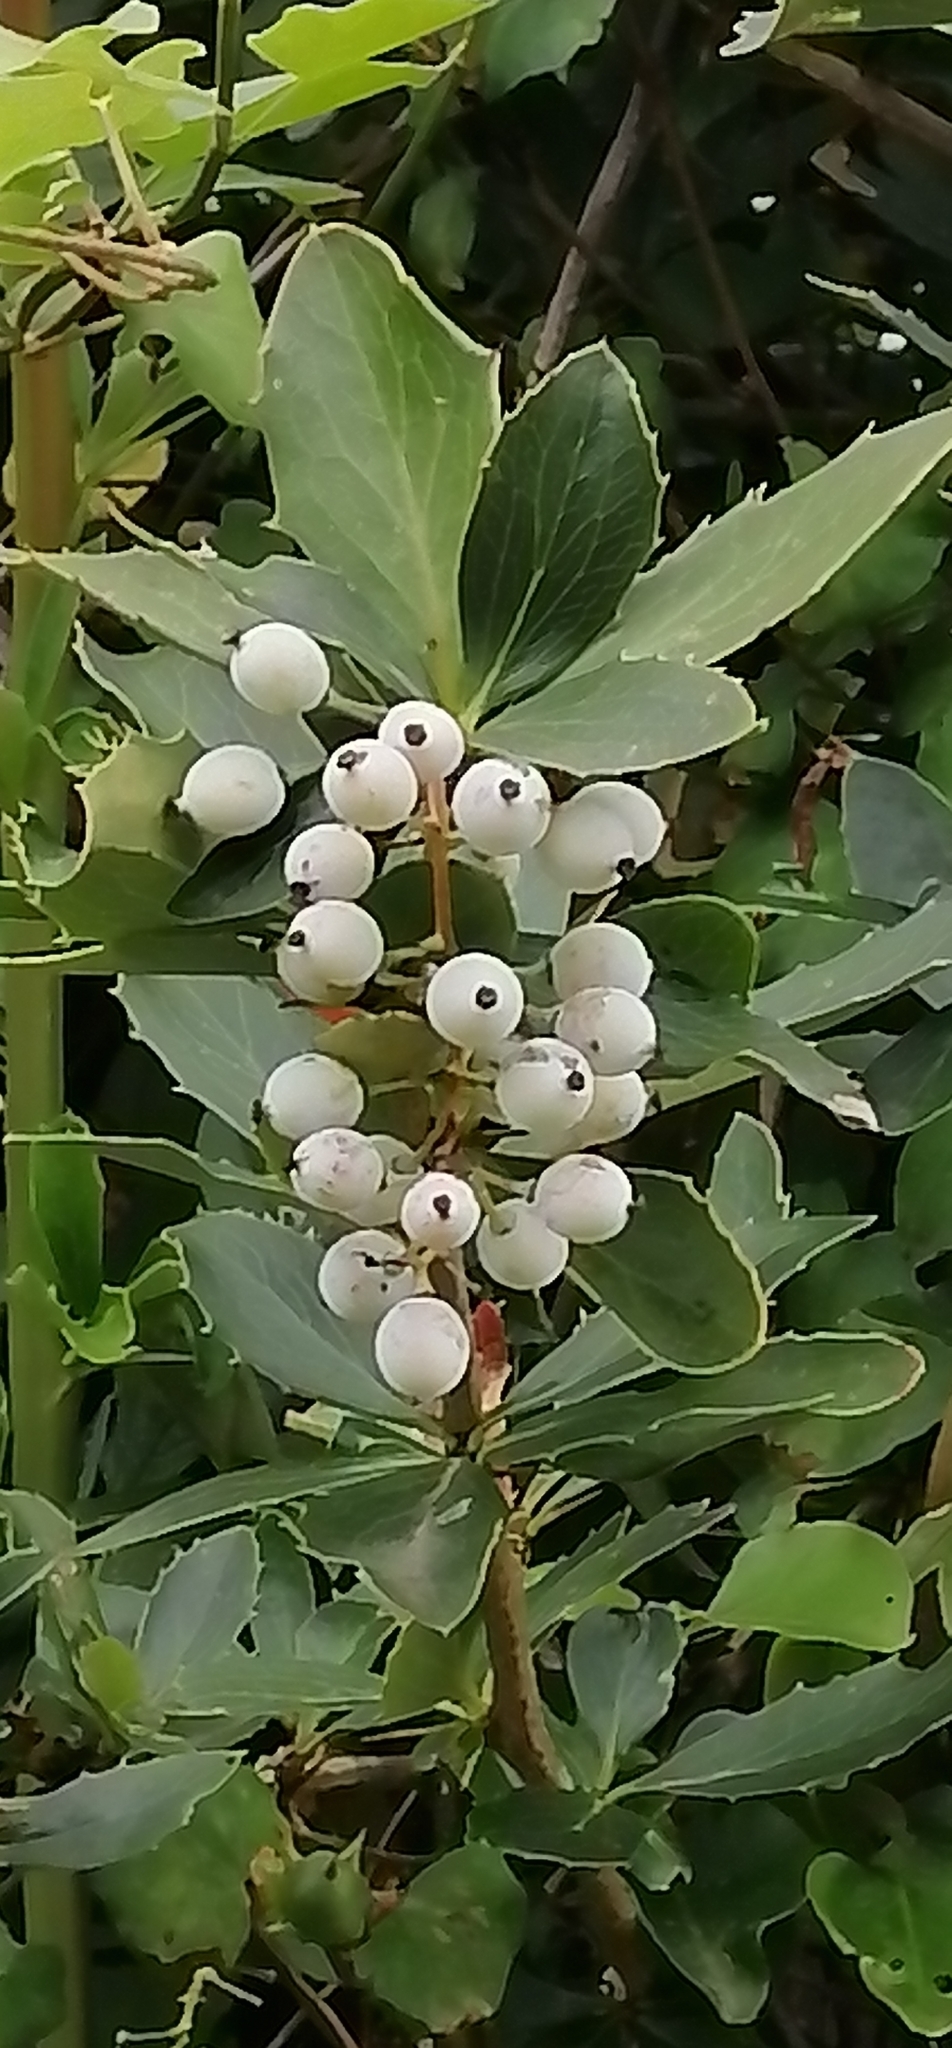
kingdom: Plantae
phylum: Tracheophyta
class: Magnoliopsida
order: Ranunculales
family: Berberidaceae
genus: Berberis
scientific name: Berberis glaucocarpa
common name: Great barberry
